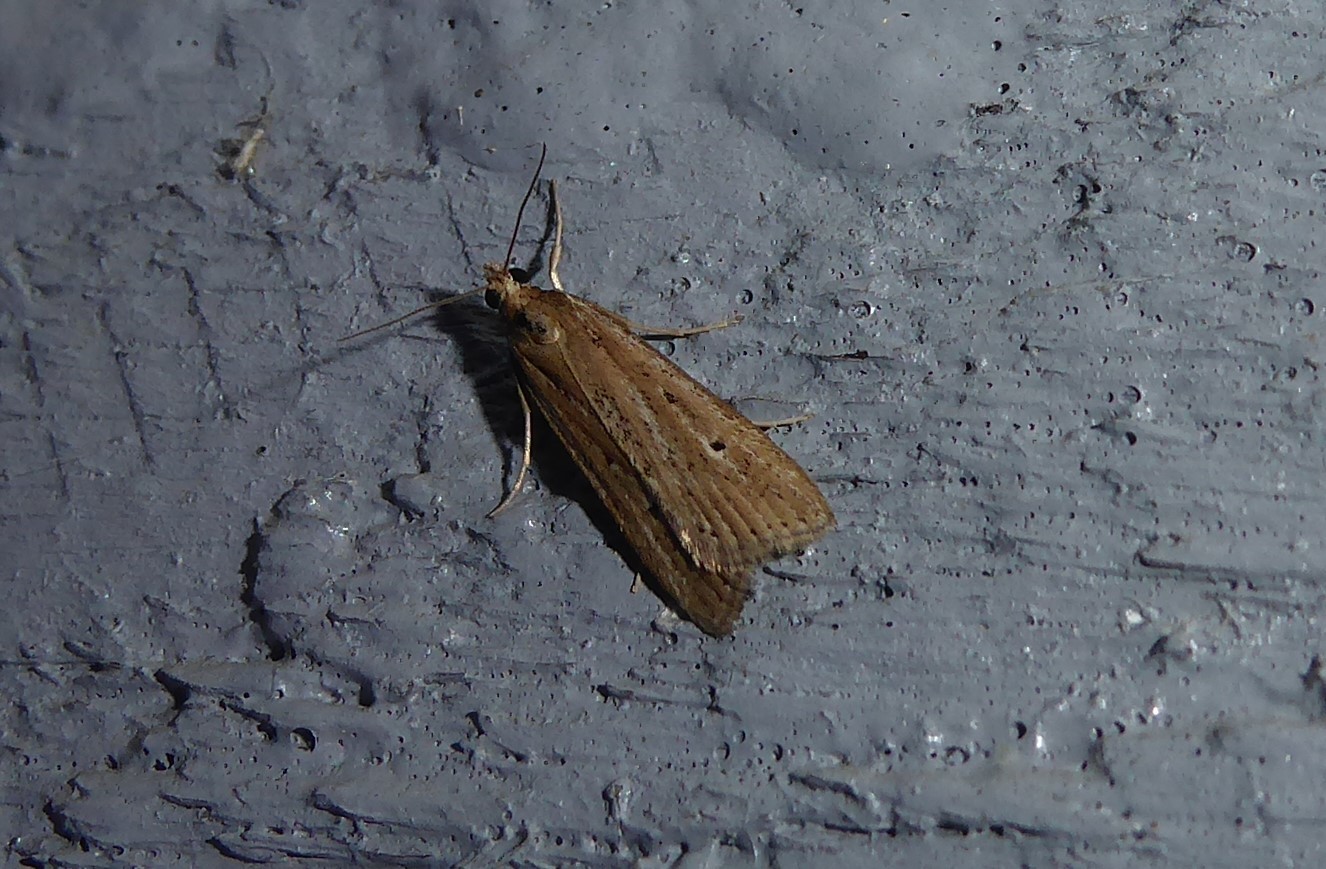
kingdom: Animalia
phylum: Arthropoda
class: Insecta
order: Lepidoptera
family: Crambidae
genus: Eudonia
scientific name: Eudonia sabulosella
